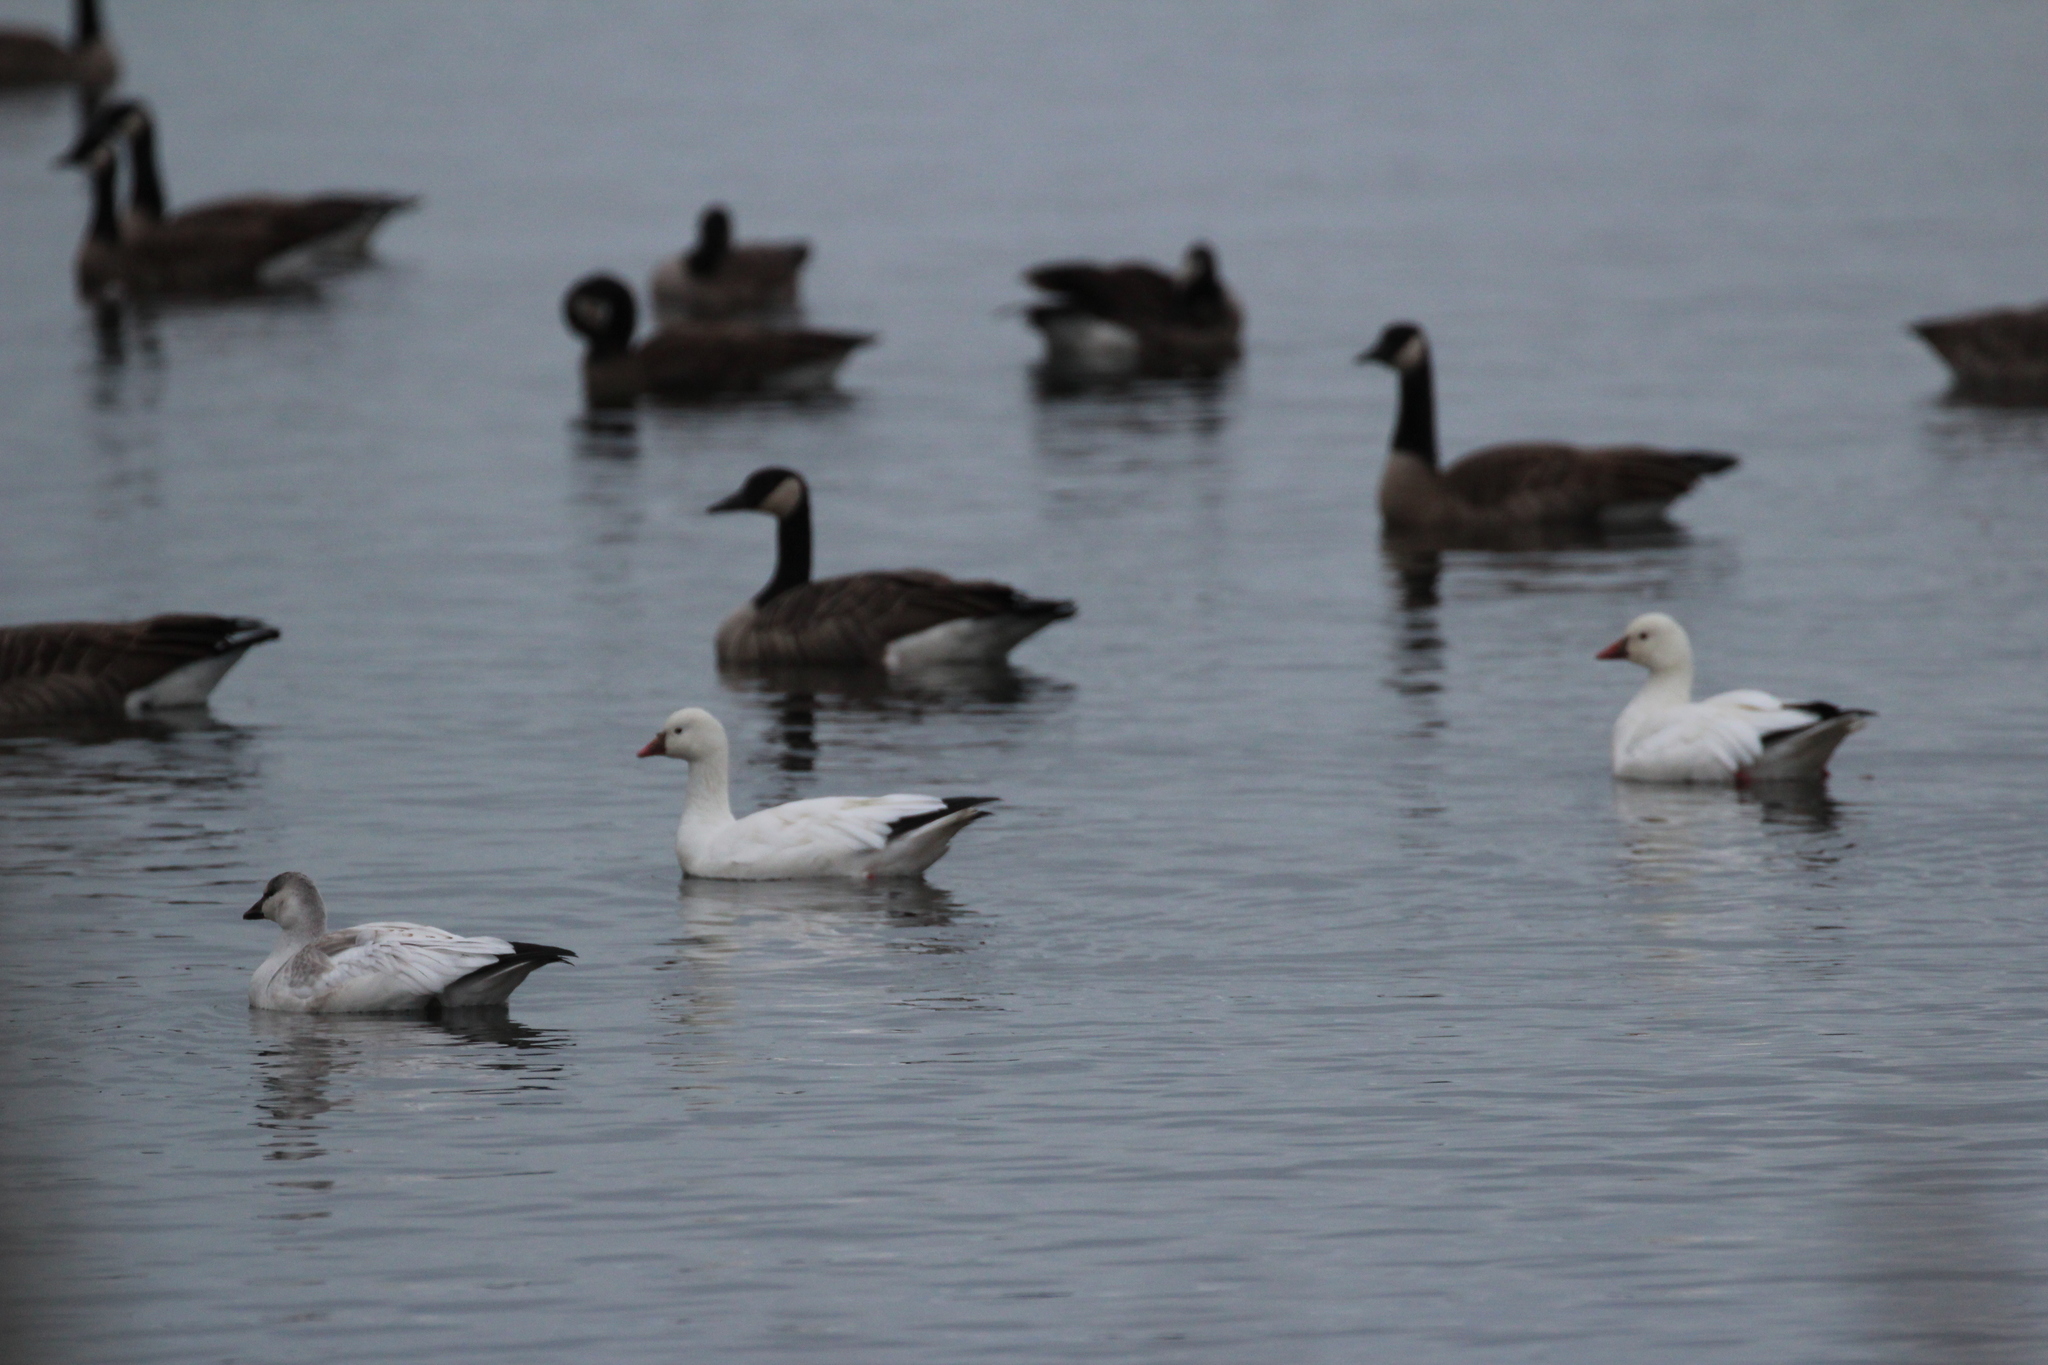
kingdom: Animalia
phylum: Chordata
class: Aves
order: Anseriformes
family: Anatidae
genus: Anser
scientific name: Anser rossii
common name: Ross's goose
